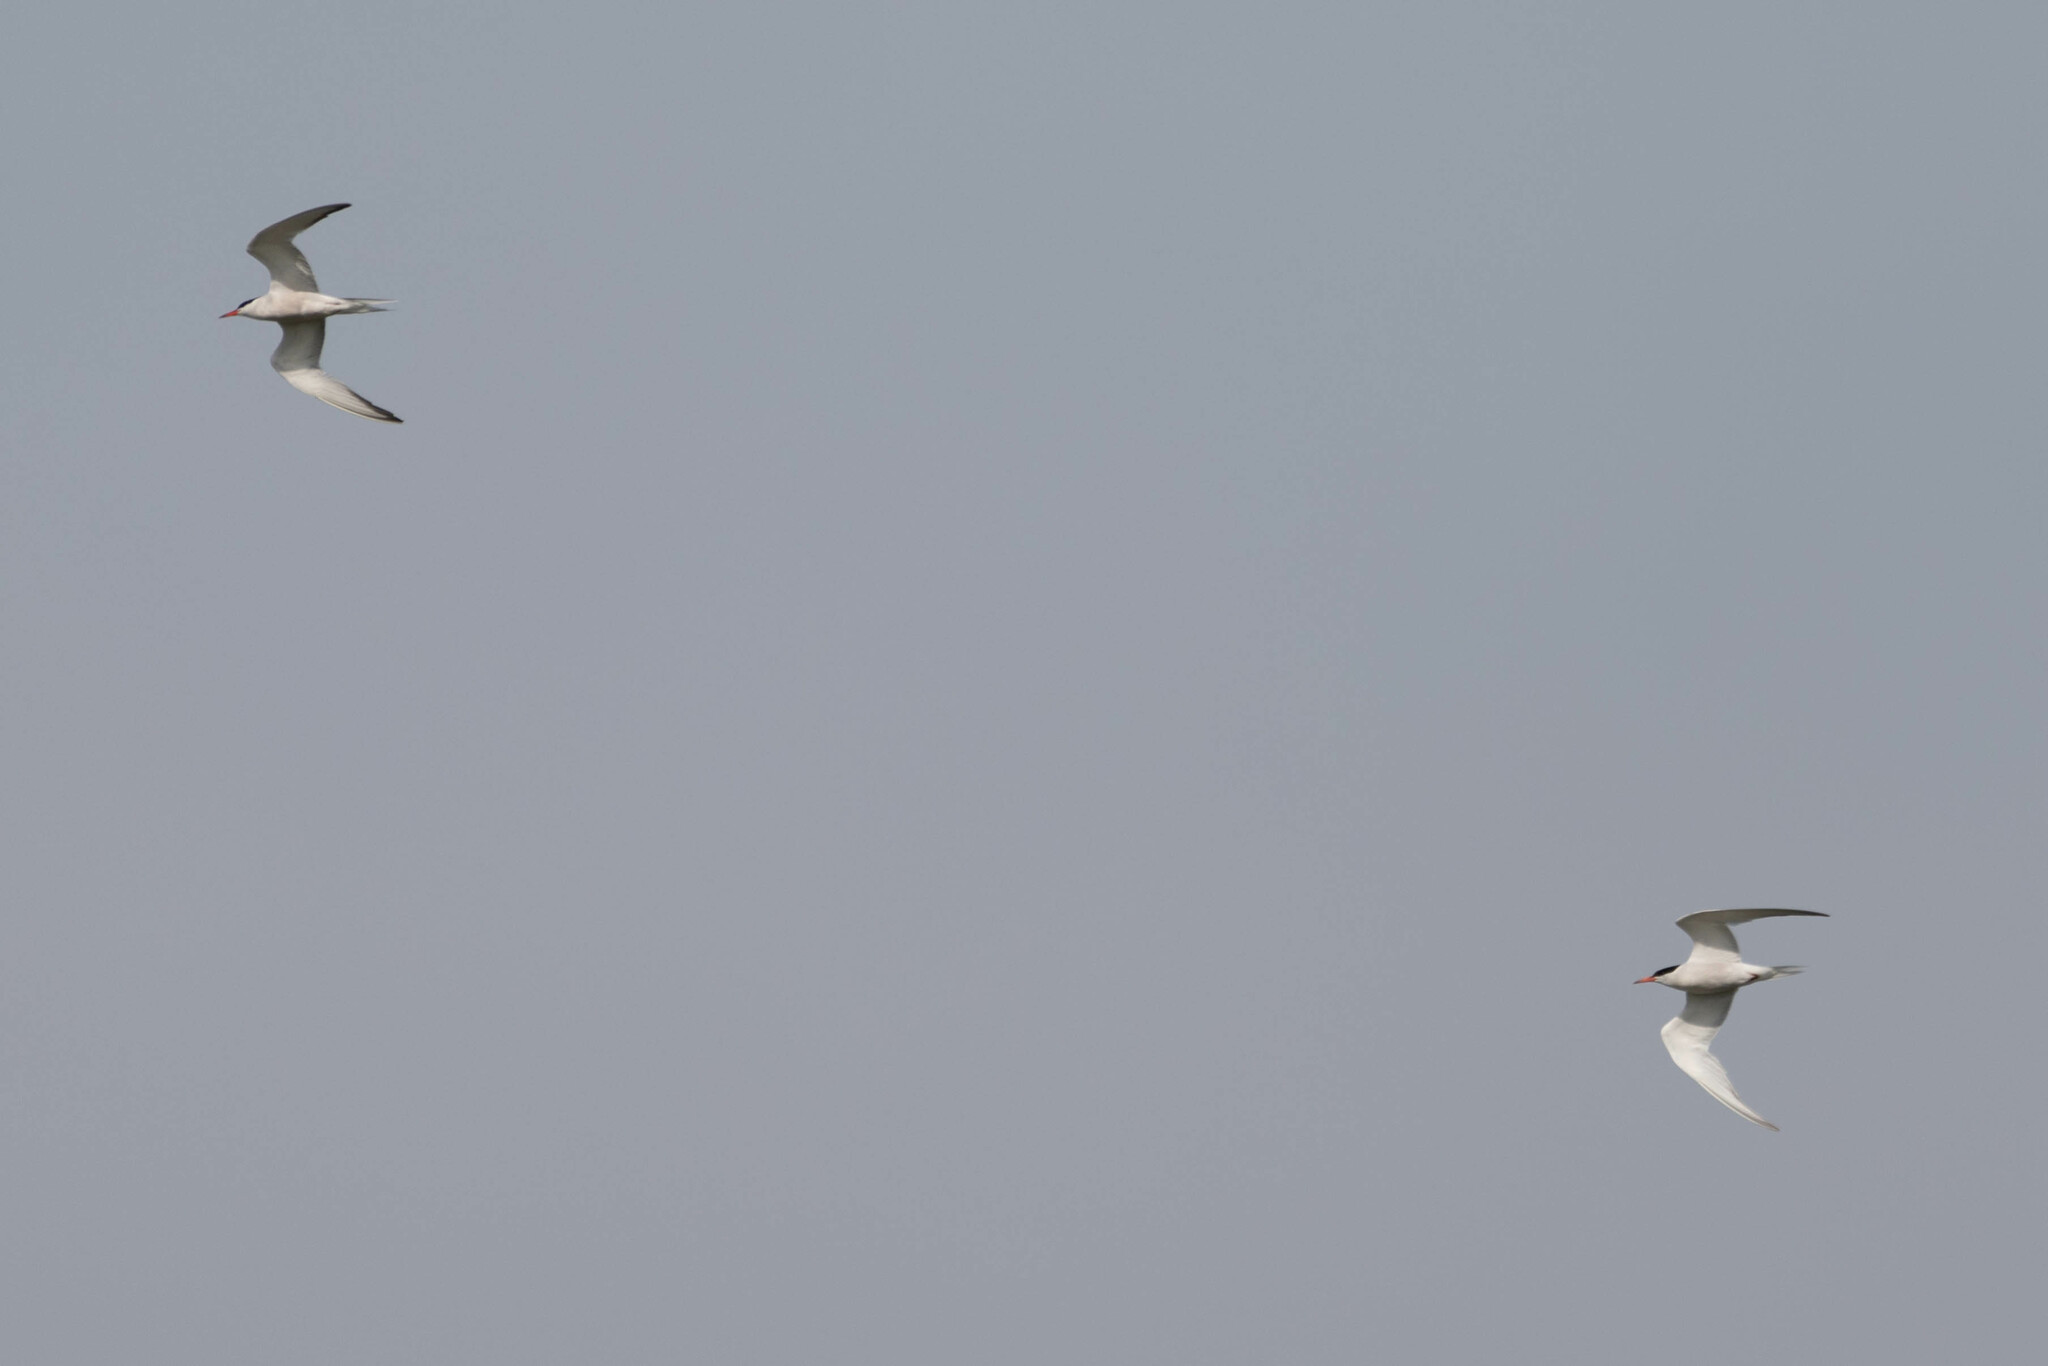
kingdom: Animalia
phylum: Chordata
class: Aves
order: Charadriiformes
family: Laridae
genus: Sterna
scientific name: Sterna hirundo
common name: Common tern
